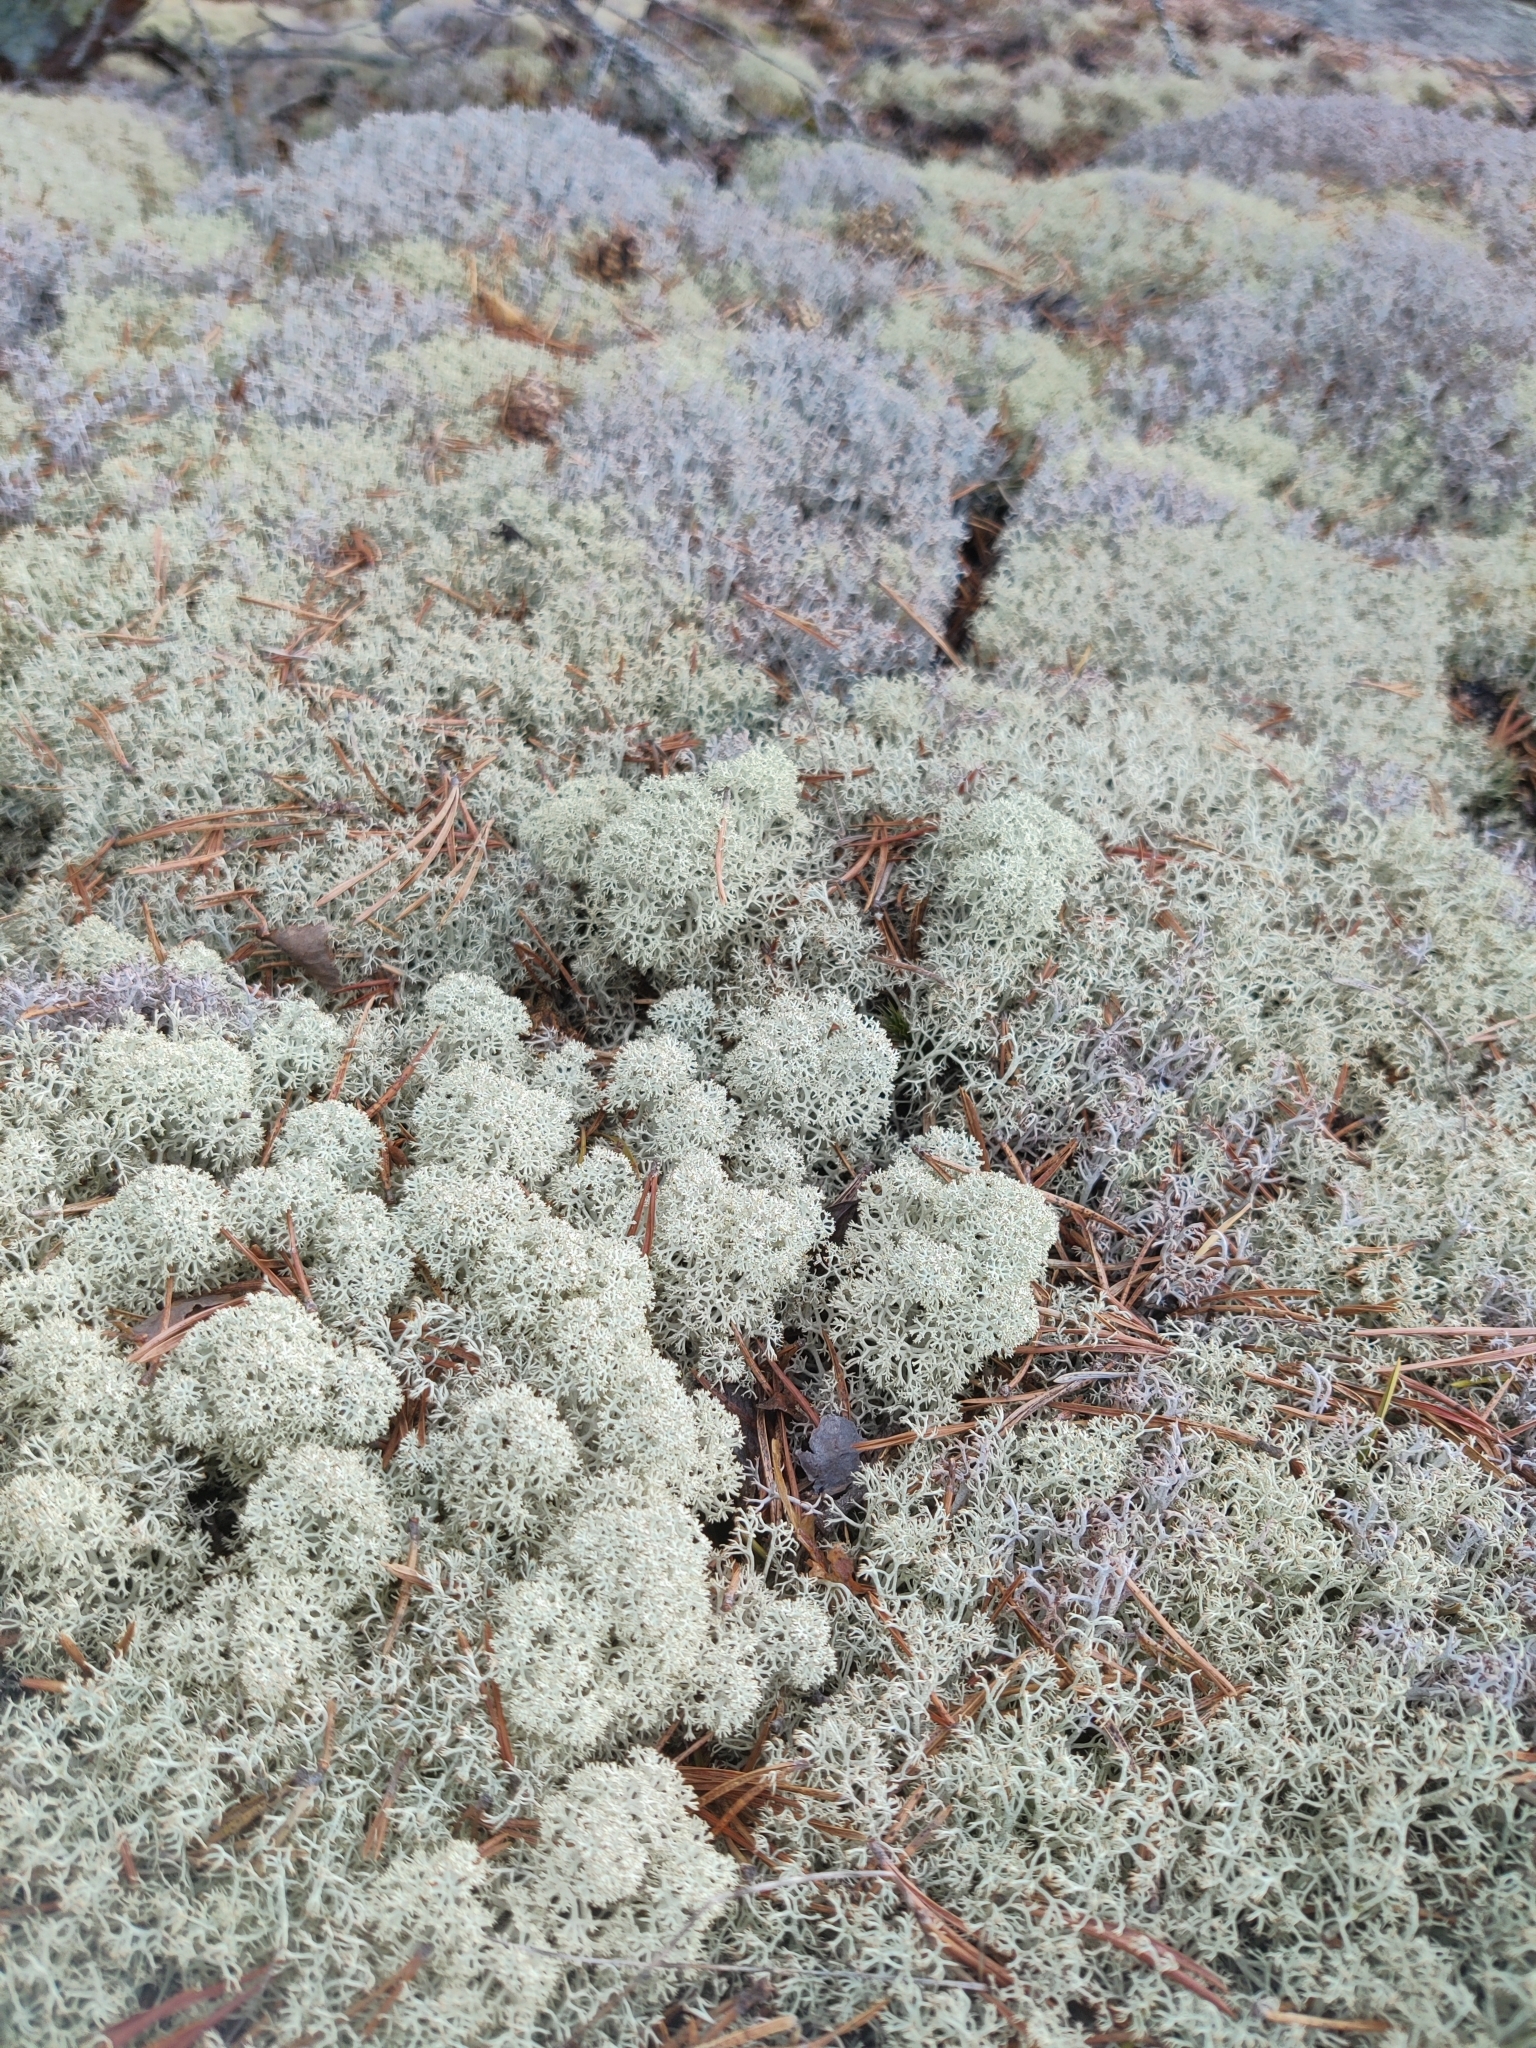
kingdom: Fungi
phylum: Ascomycota
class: Lecanoromycetes
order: Lecanorales
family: Cladoniaceae
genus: Cladonia
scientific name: Cladonia stellaris
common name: Star-tipped reindeer lichen
